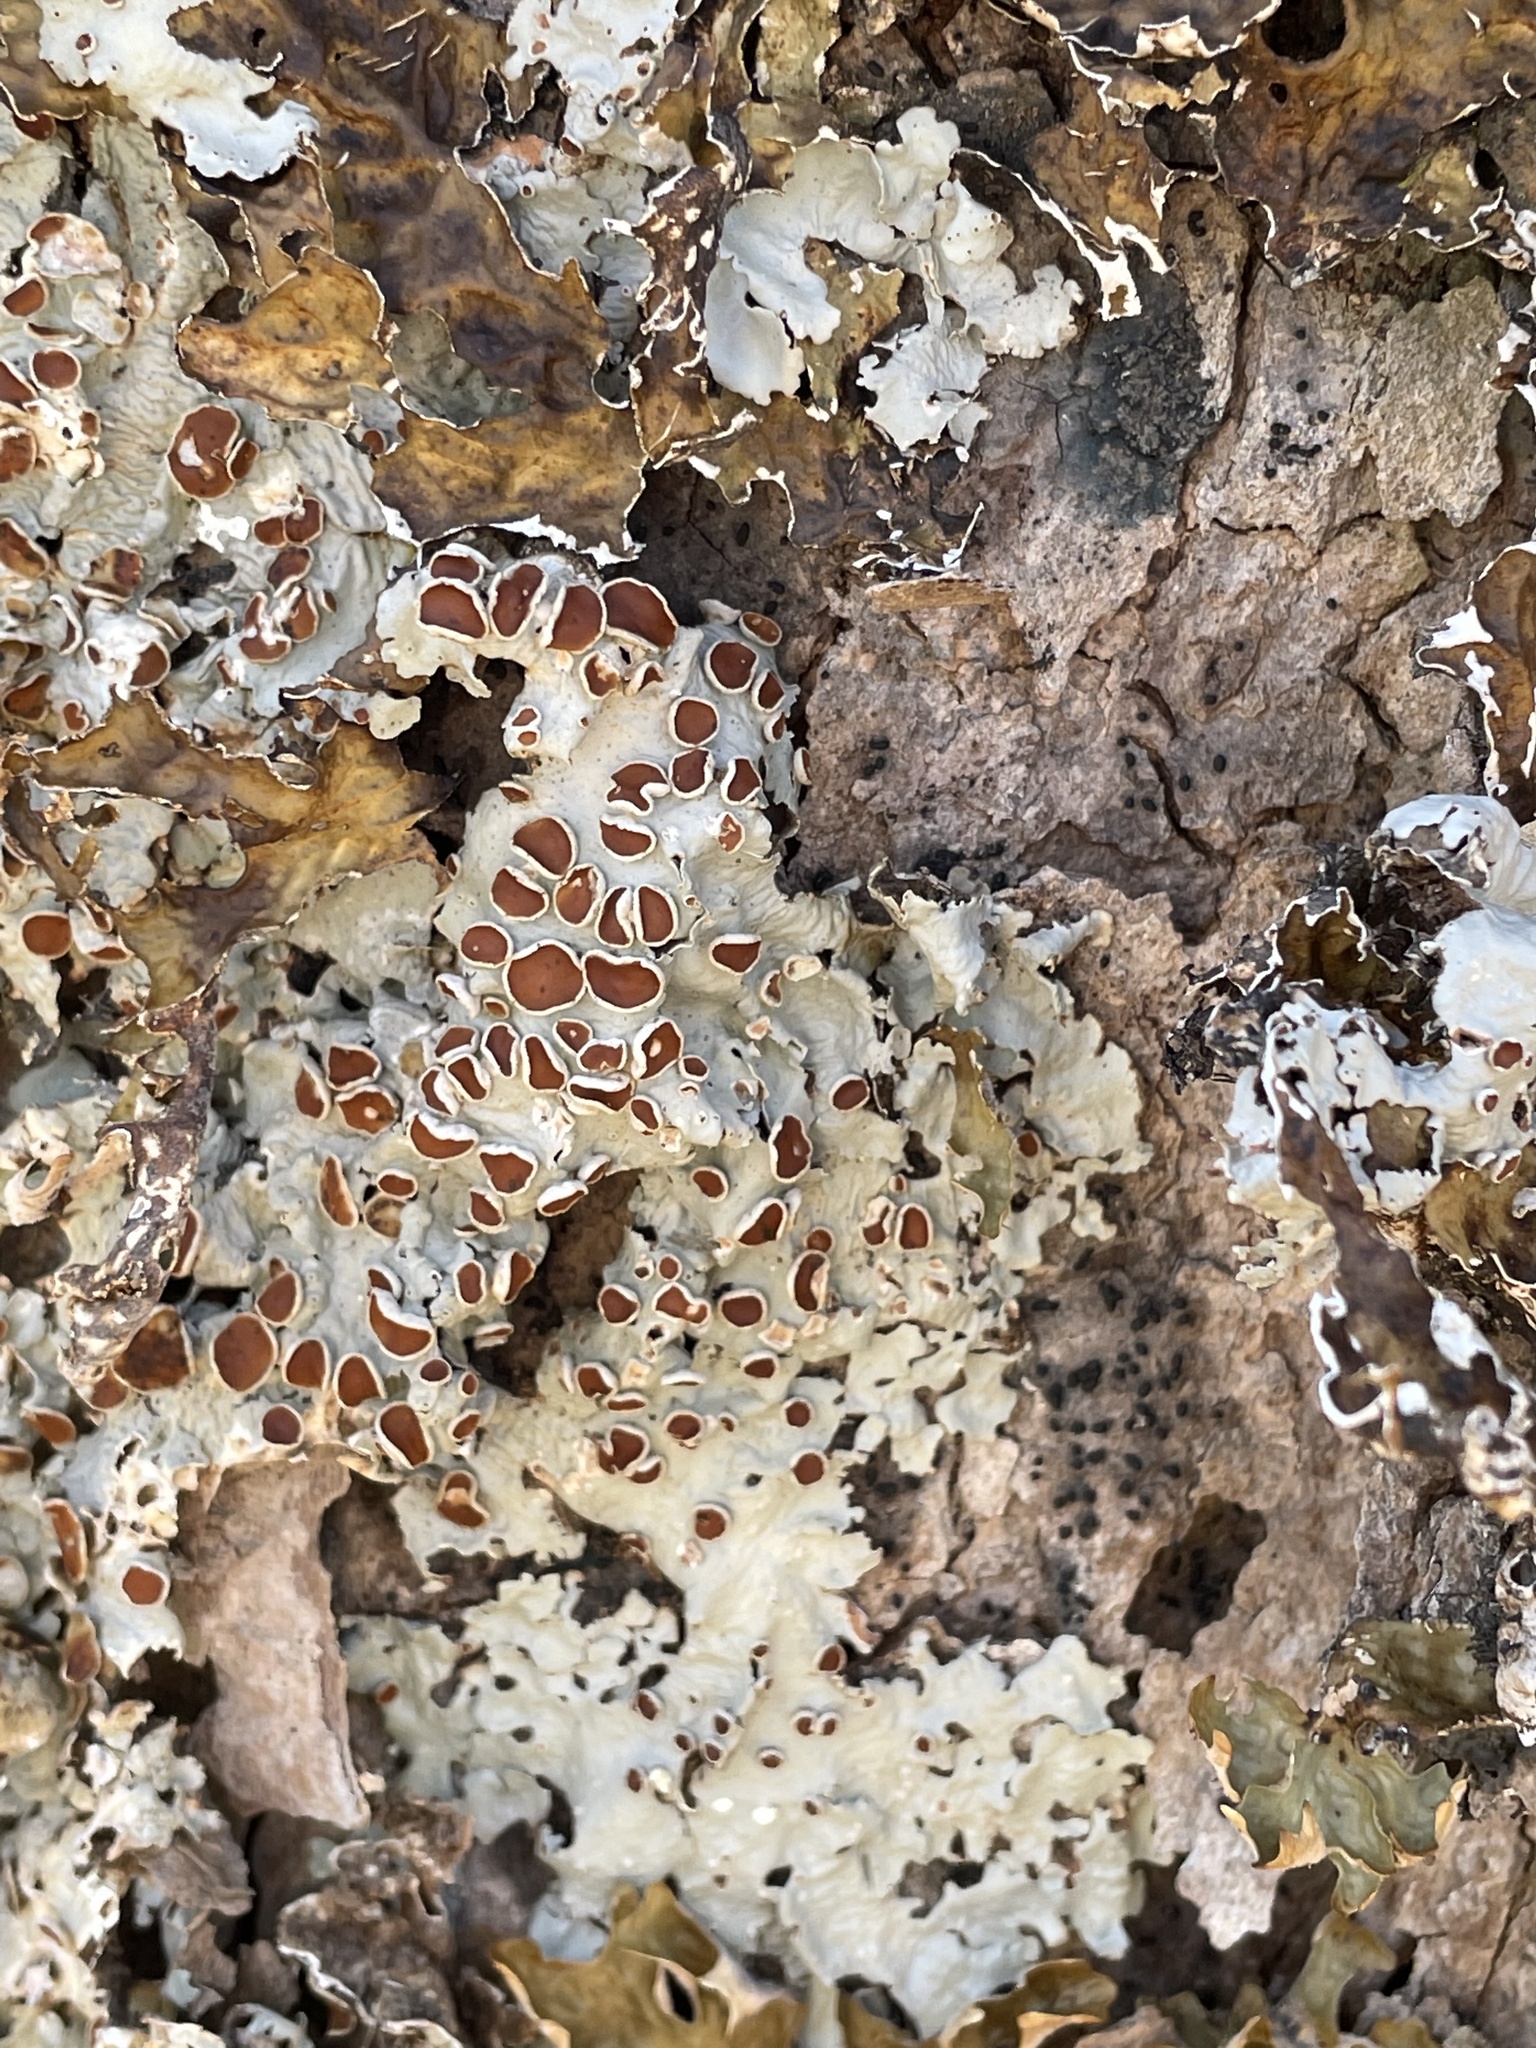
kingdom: Fungi
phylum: Ascomycota
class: Lecanoromycetes
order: Peltigerales
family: Lobariaceae
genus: Ricasolia
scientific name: Ricasolia quercizans
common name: Smooth lungwort
